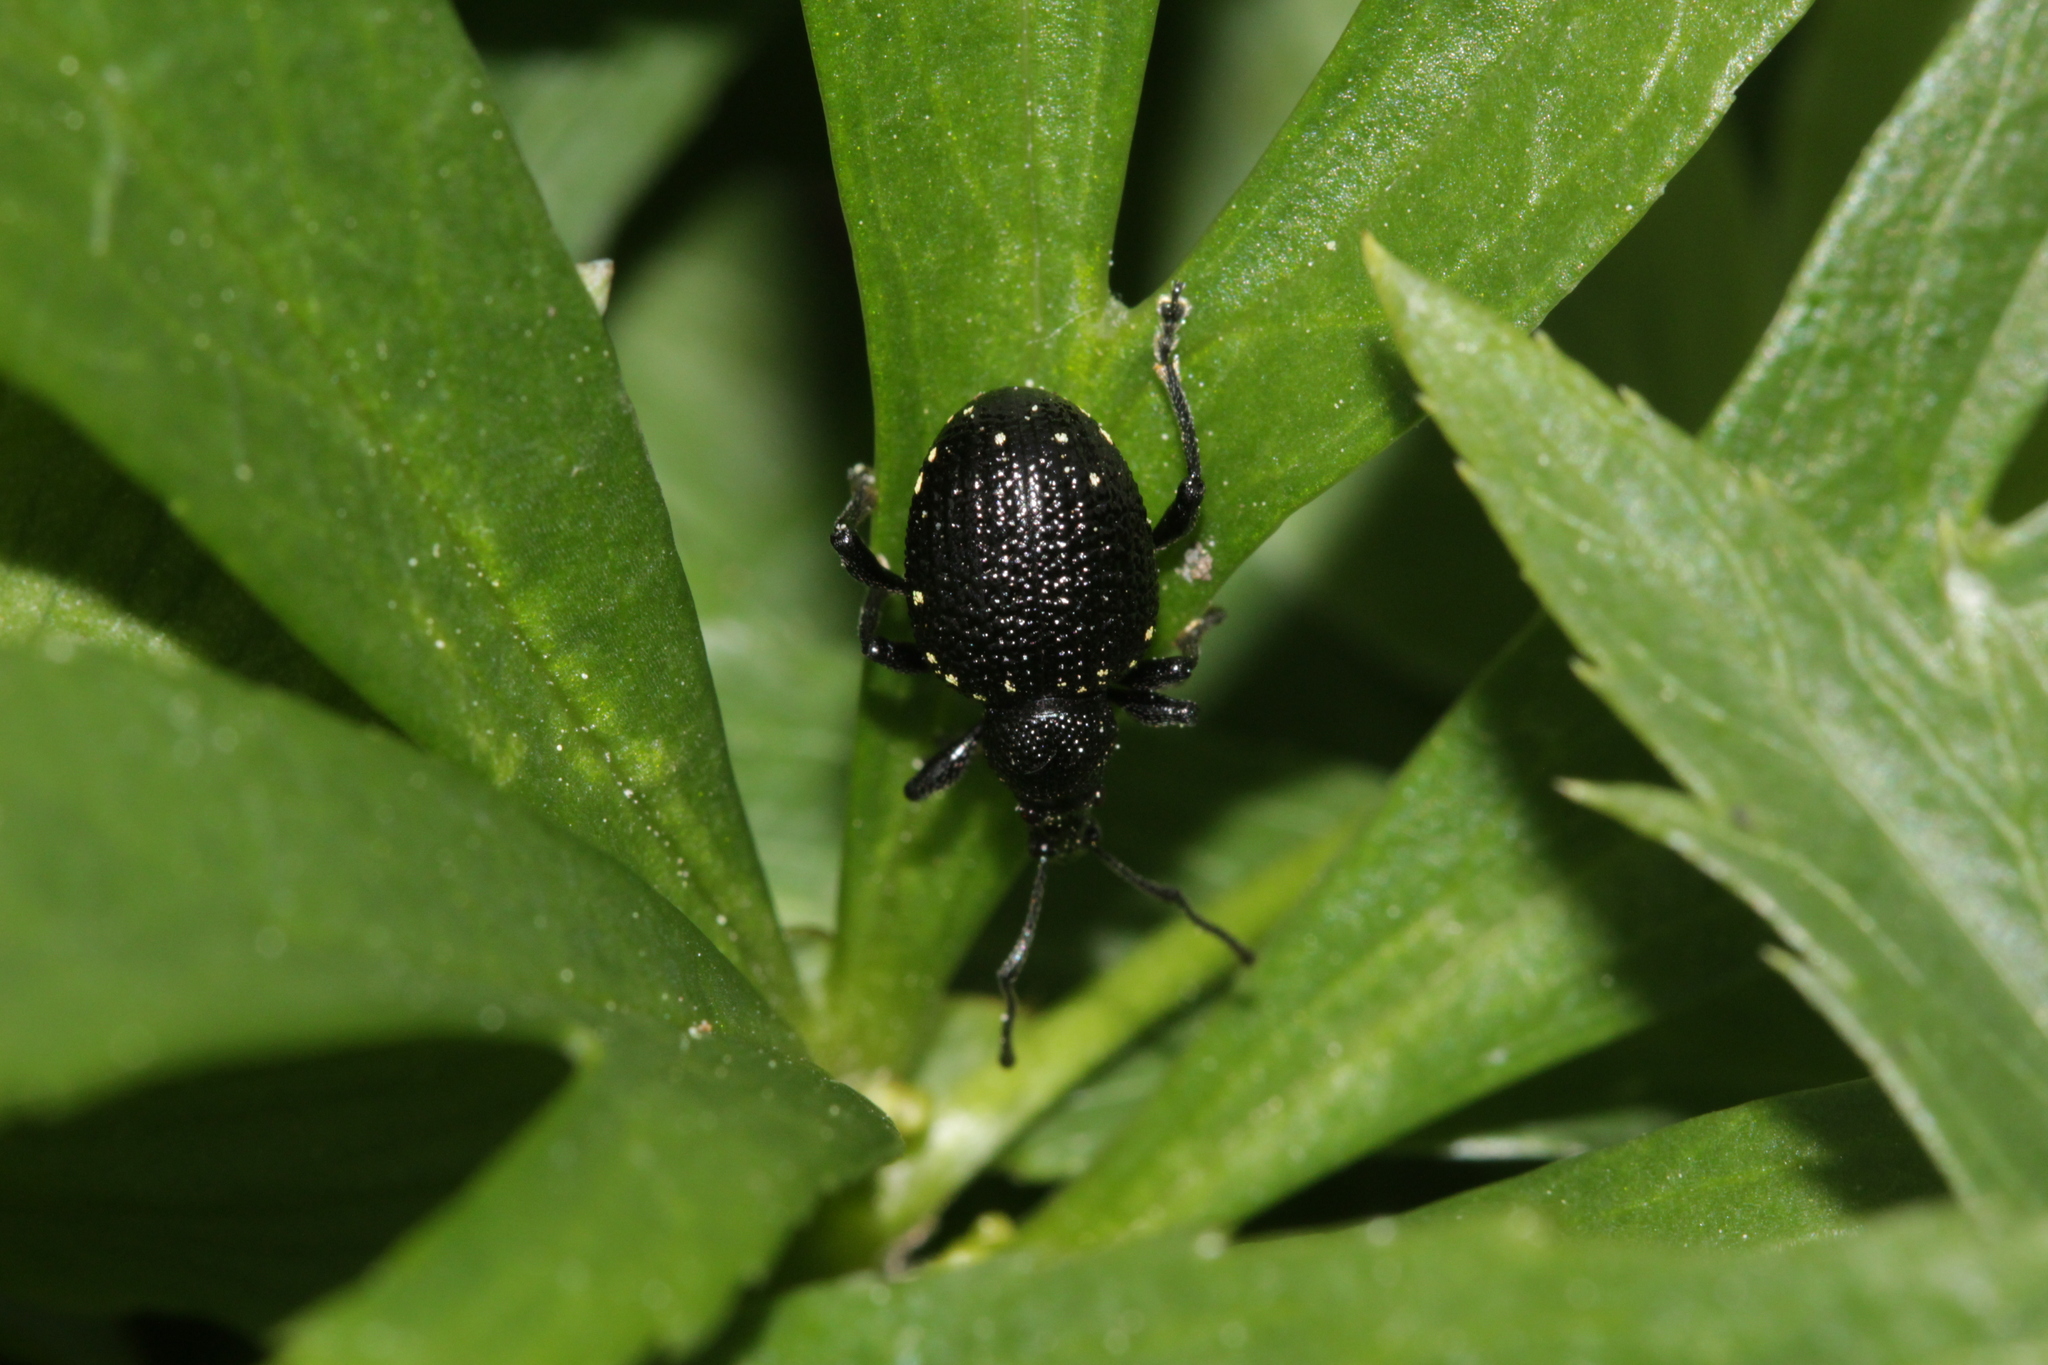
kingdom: Animalia
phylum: Arthropoda
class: Insecta
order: Coleoptera
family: Curculionidae
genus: Otiorhynchus
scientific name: Otiorhynchus gemmatus
